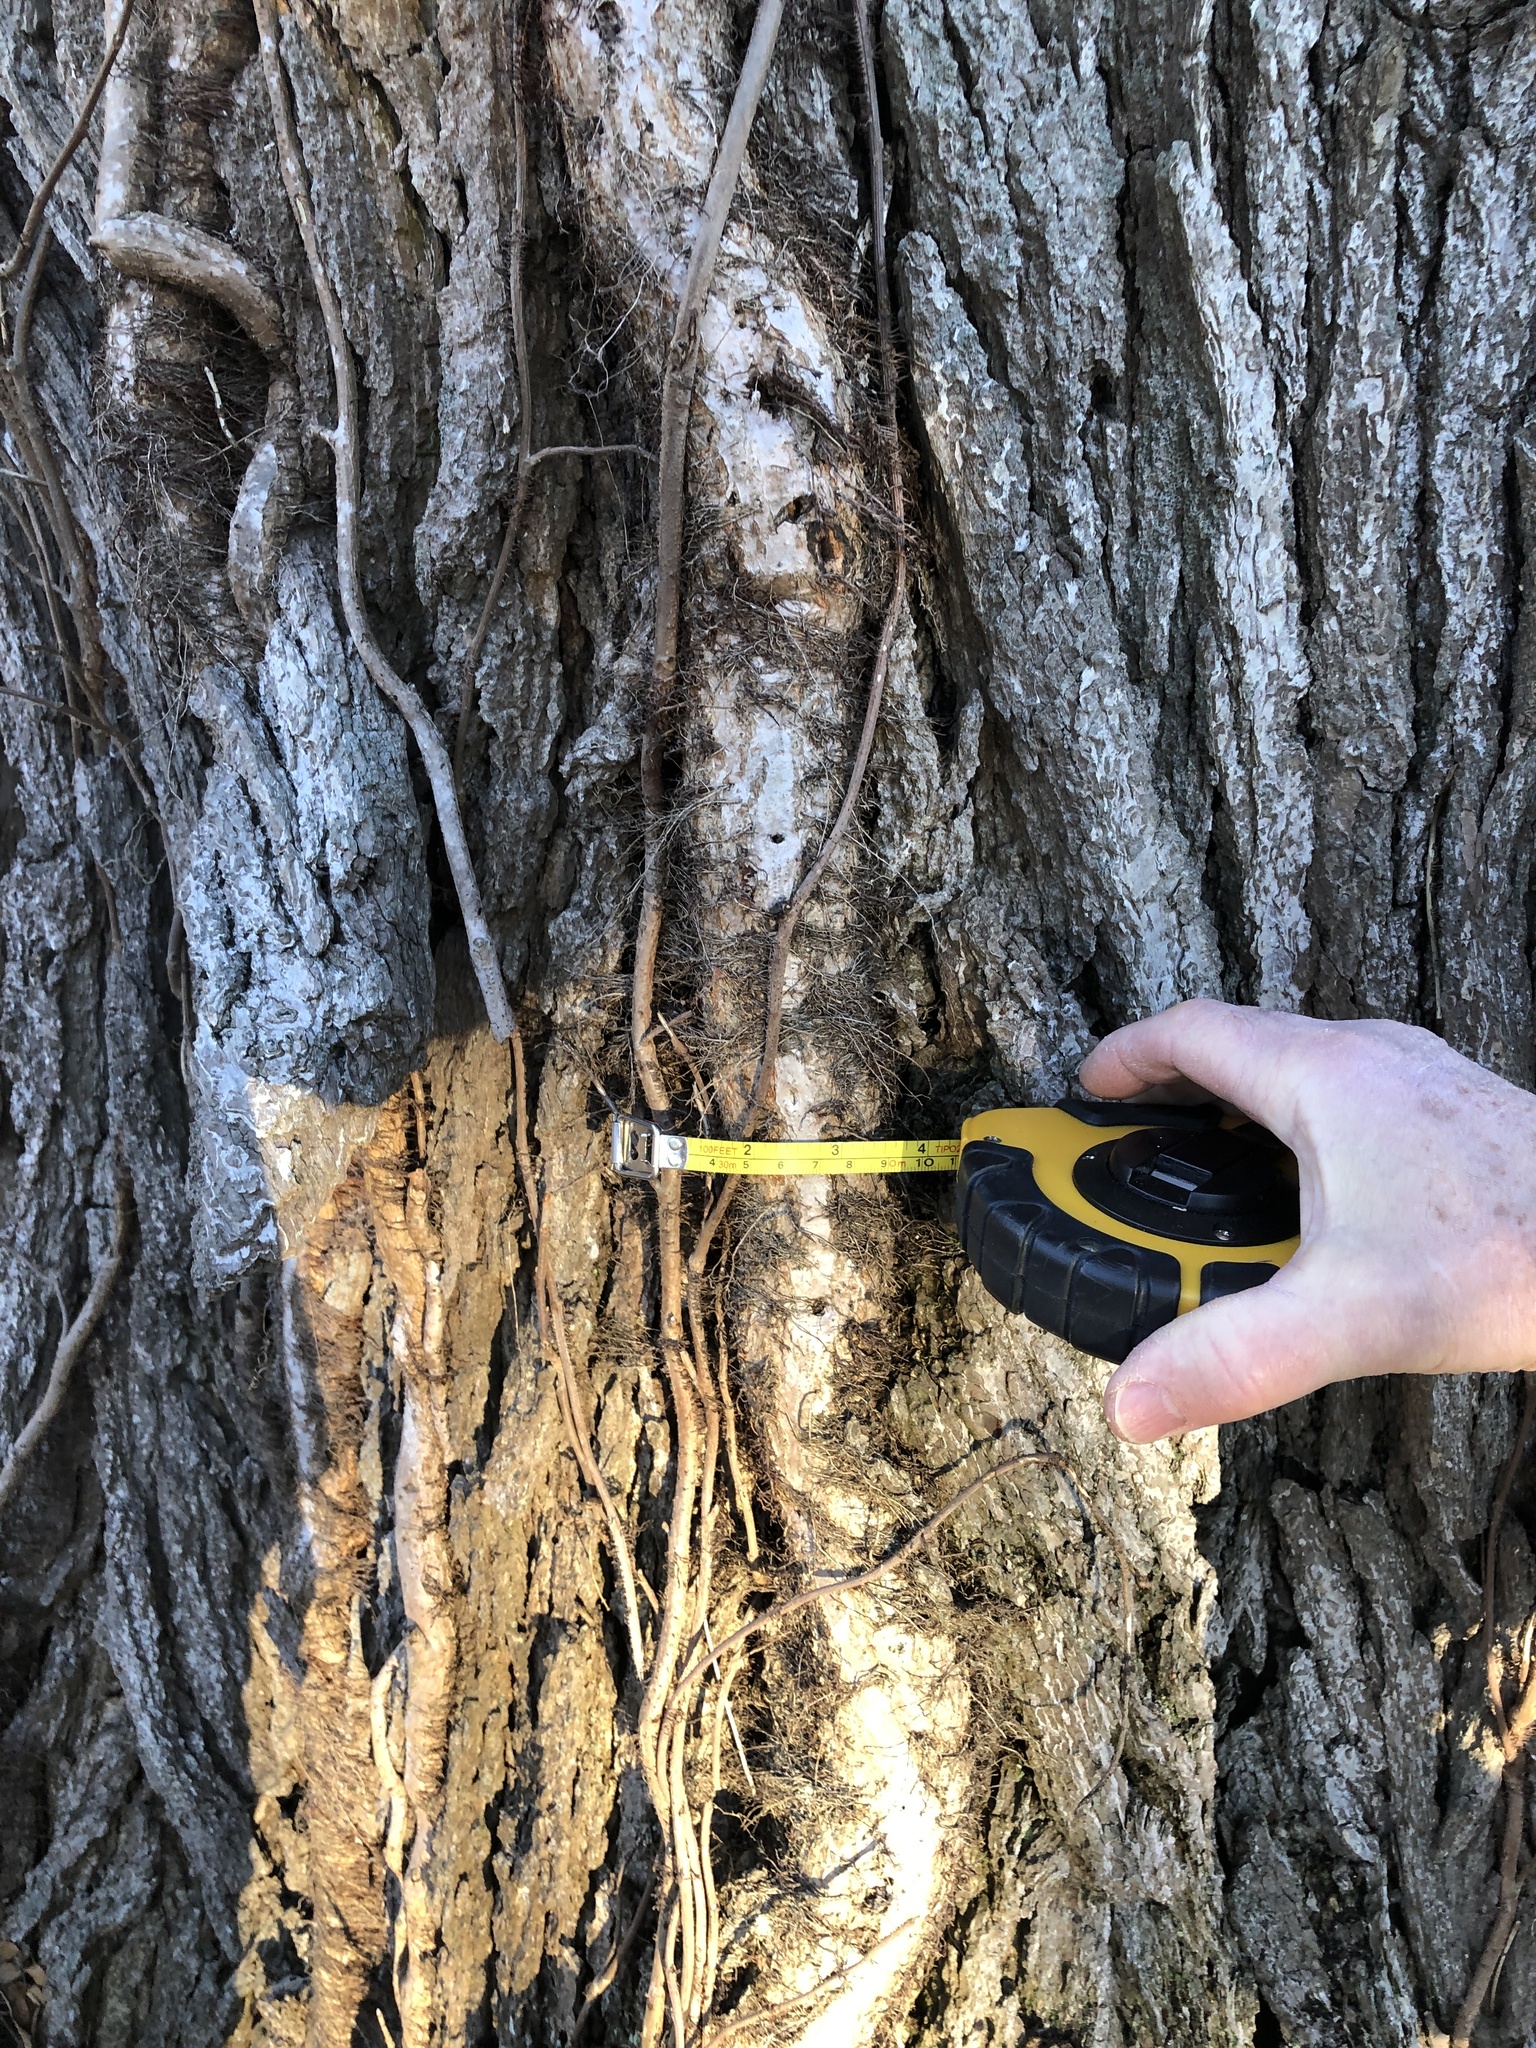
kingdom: Plantae
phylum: Tracheophyta
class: Magnoliopsida
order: Sapindales
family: Anacardiaceae
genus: Toxicodendron
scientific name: Toxicodendron radicans
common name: Poison ivy
